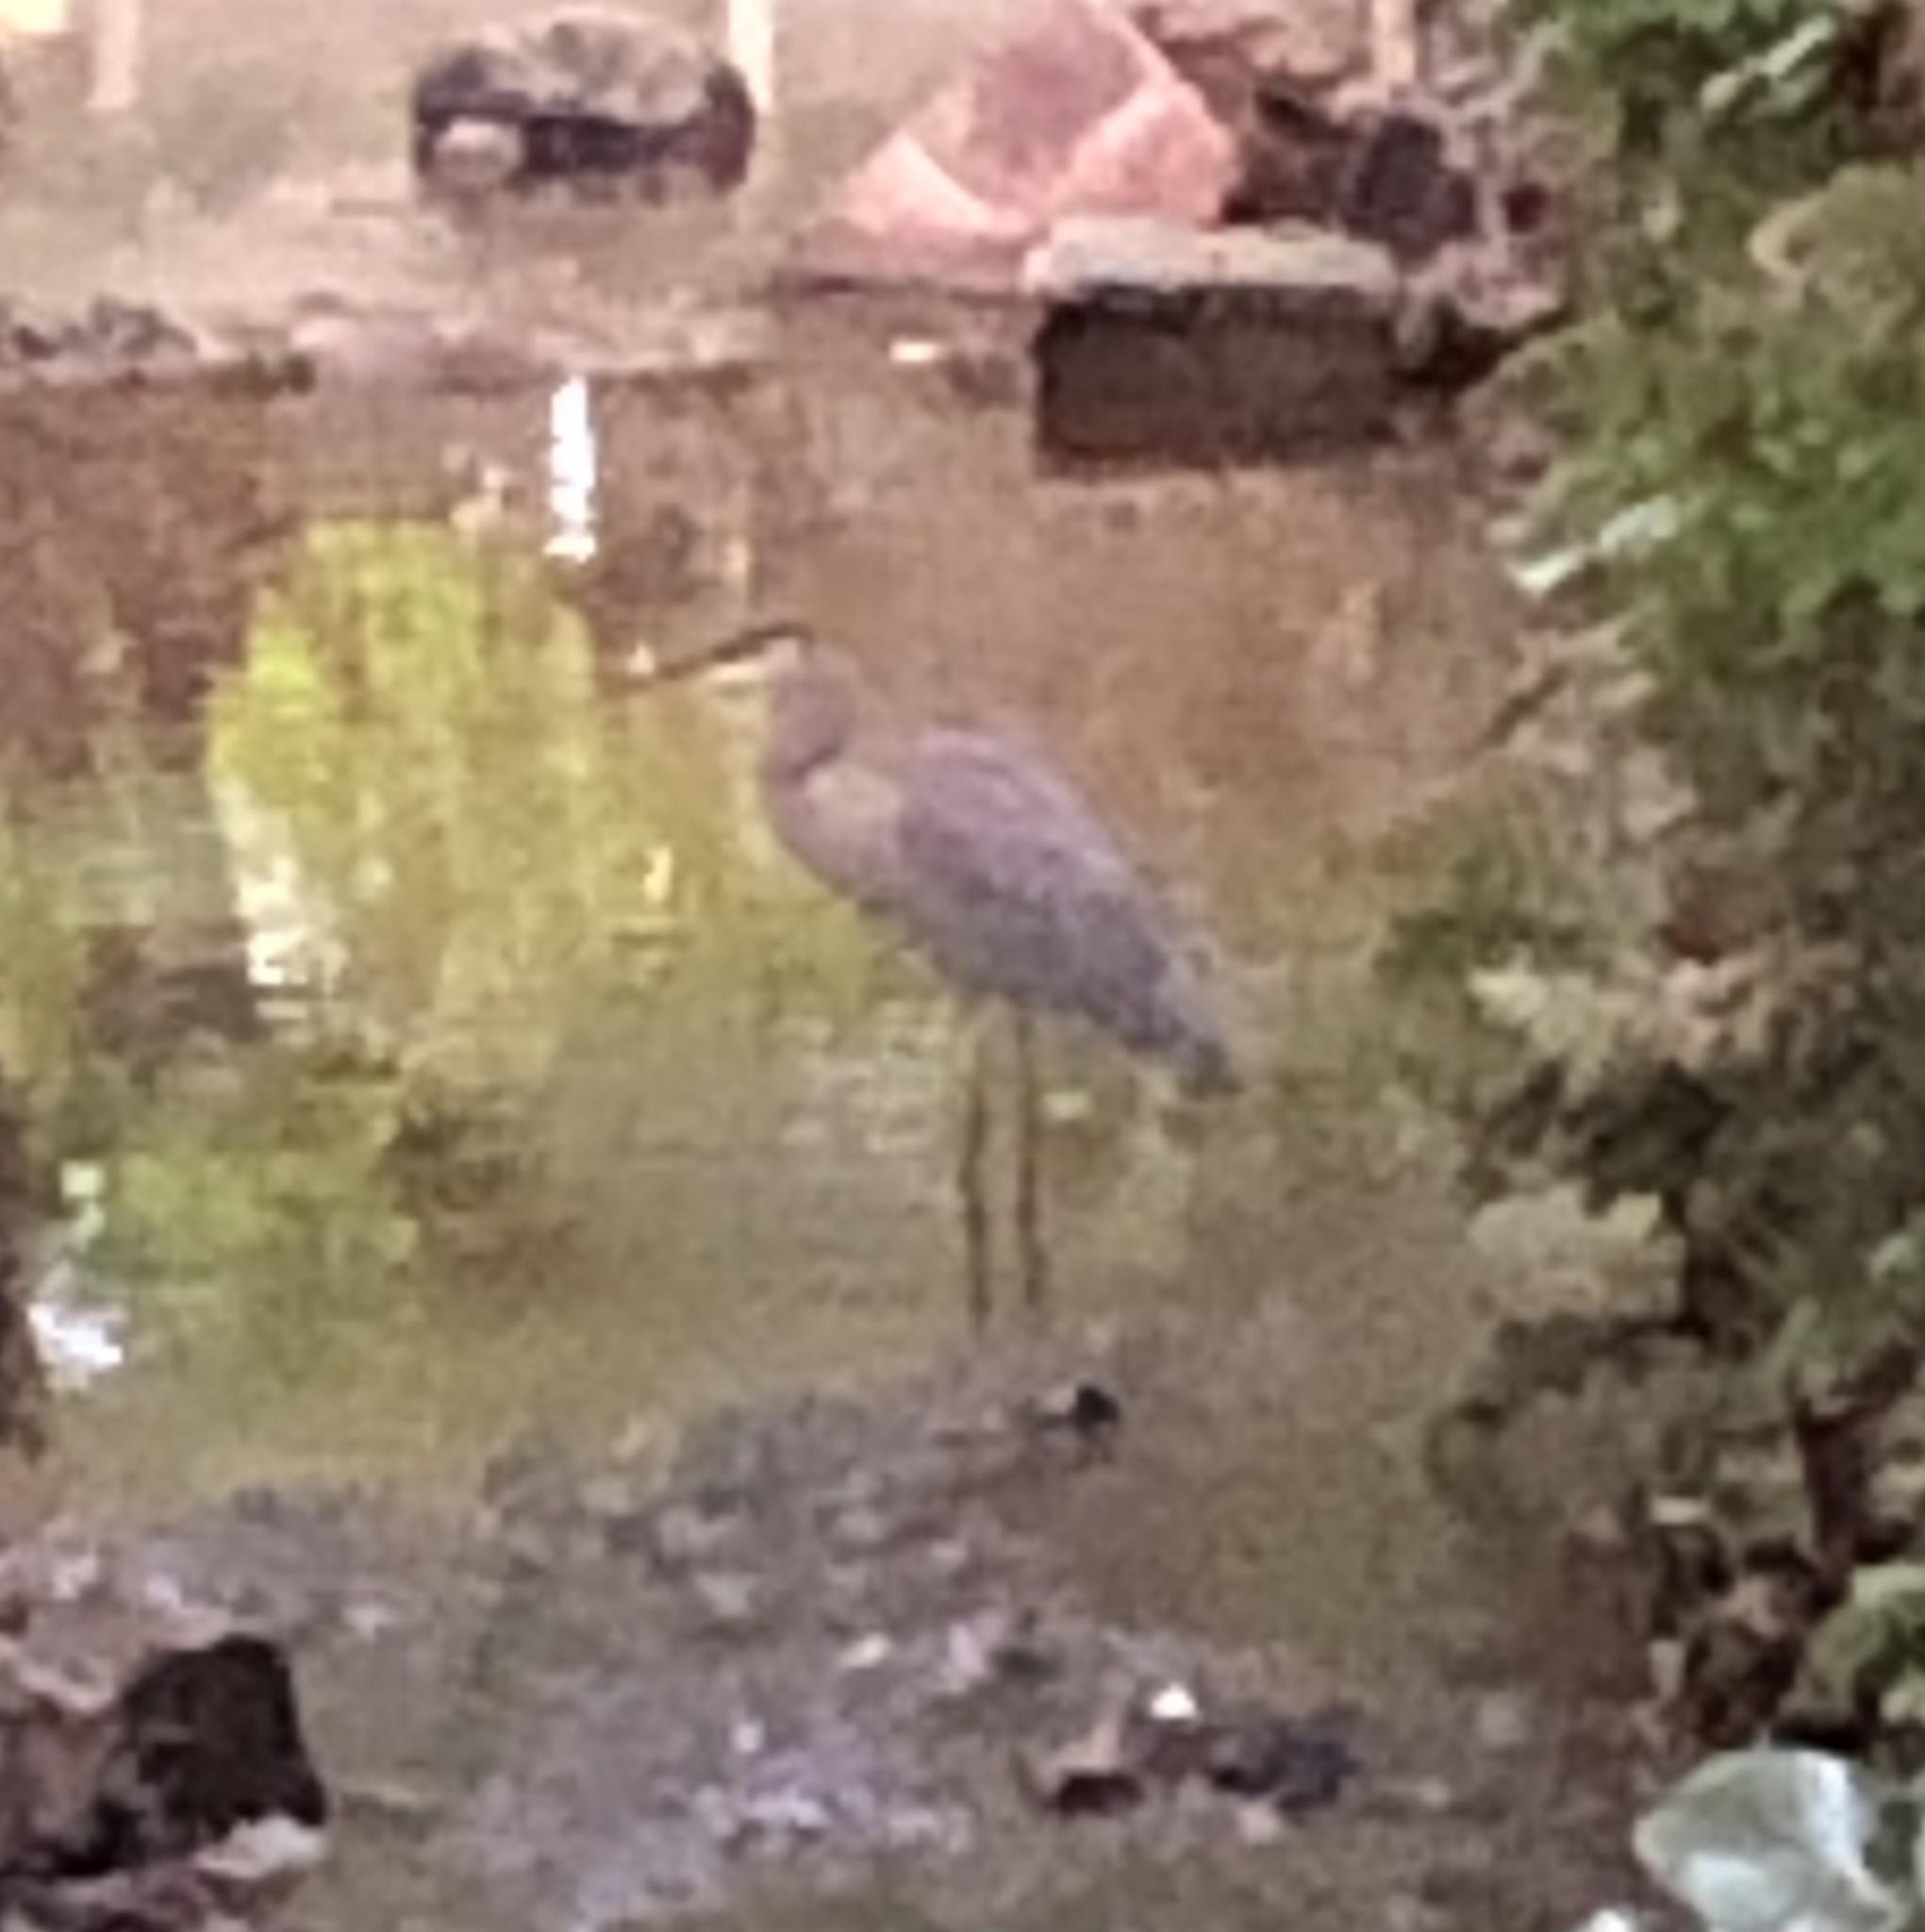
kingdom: Animalia
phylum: Chordata
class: Aves
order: Pelecaniformes
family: Ardeidae
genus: Ardea
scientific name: Ardea herodias
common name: Great blue heron
